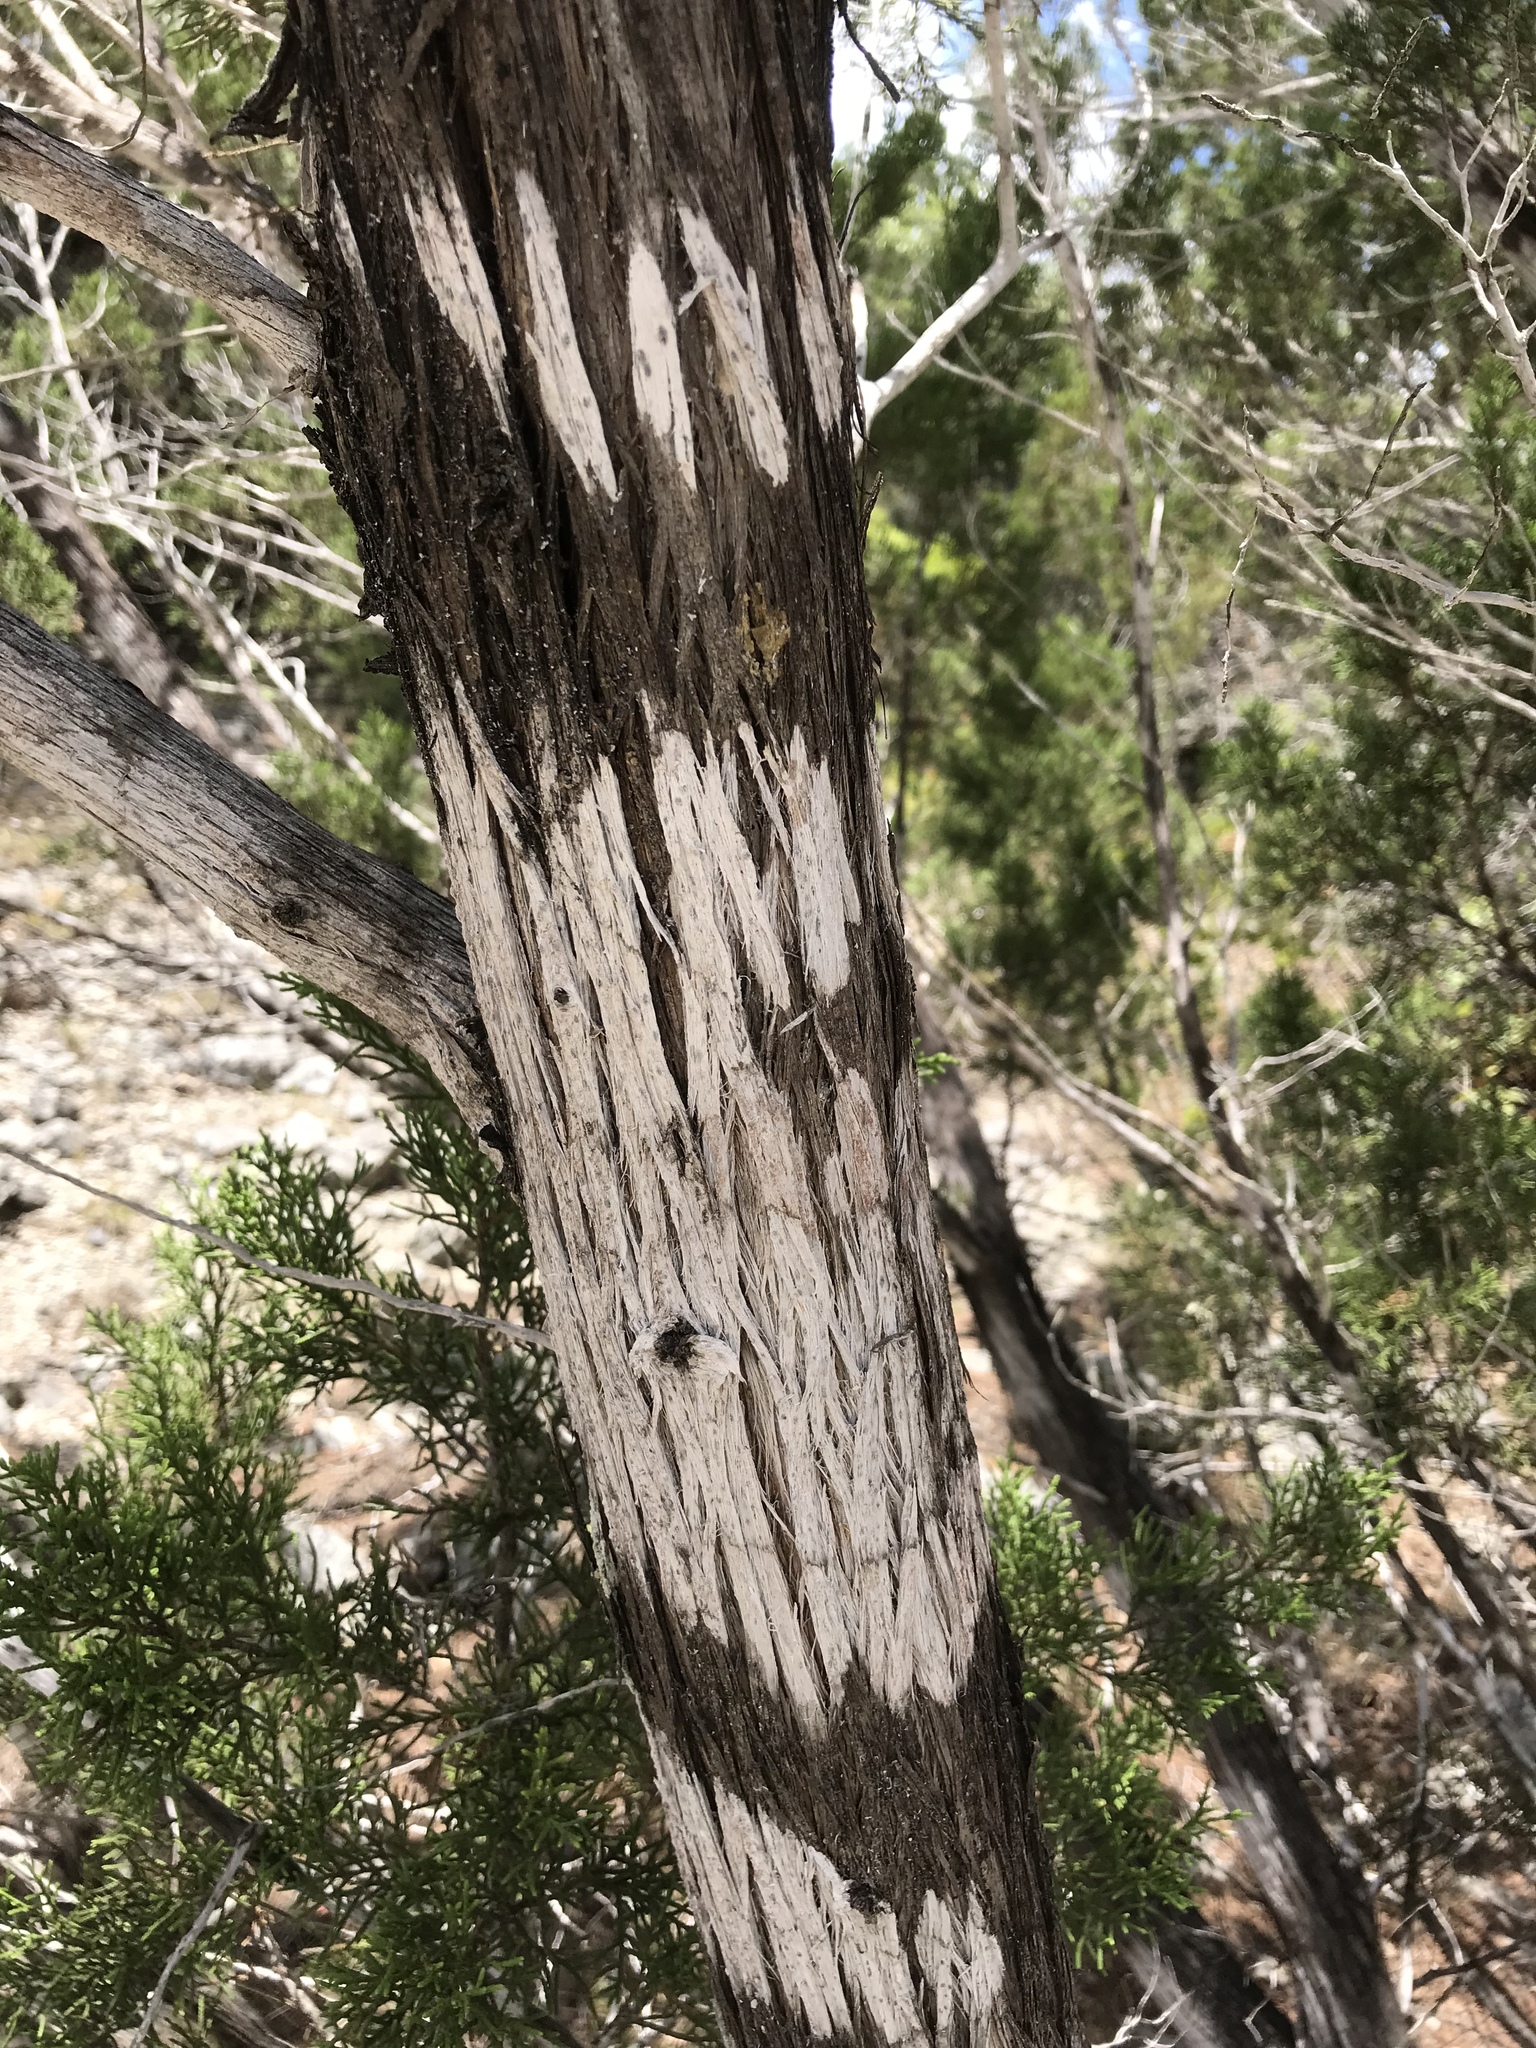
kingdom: Fungi
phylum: Ascomycota
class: Lecanoromycetes
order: Ostropales
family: Stictidaceae
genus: Robergea
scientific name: Robergea
